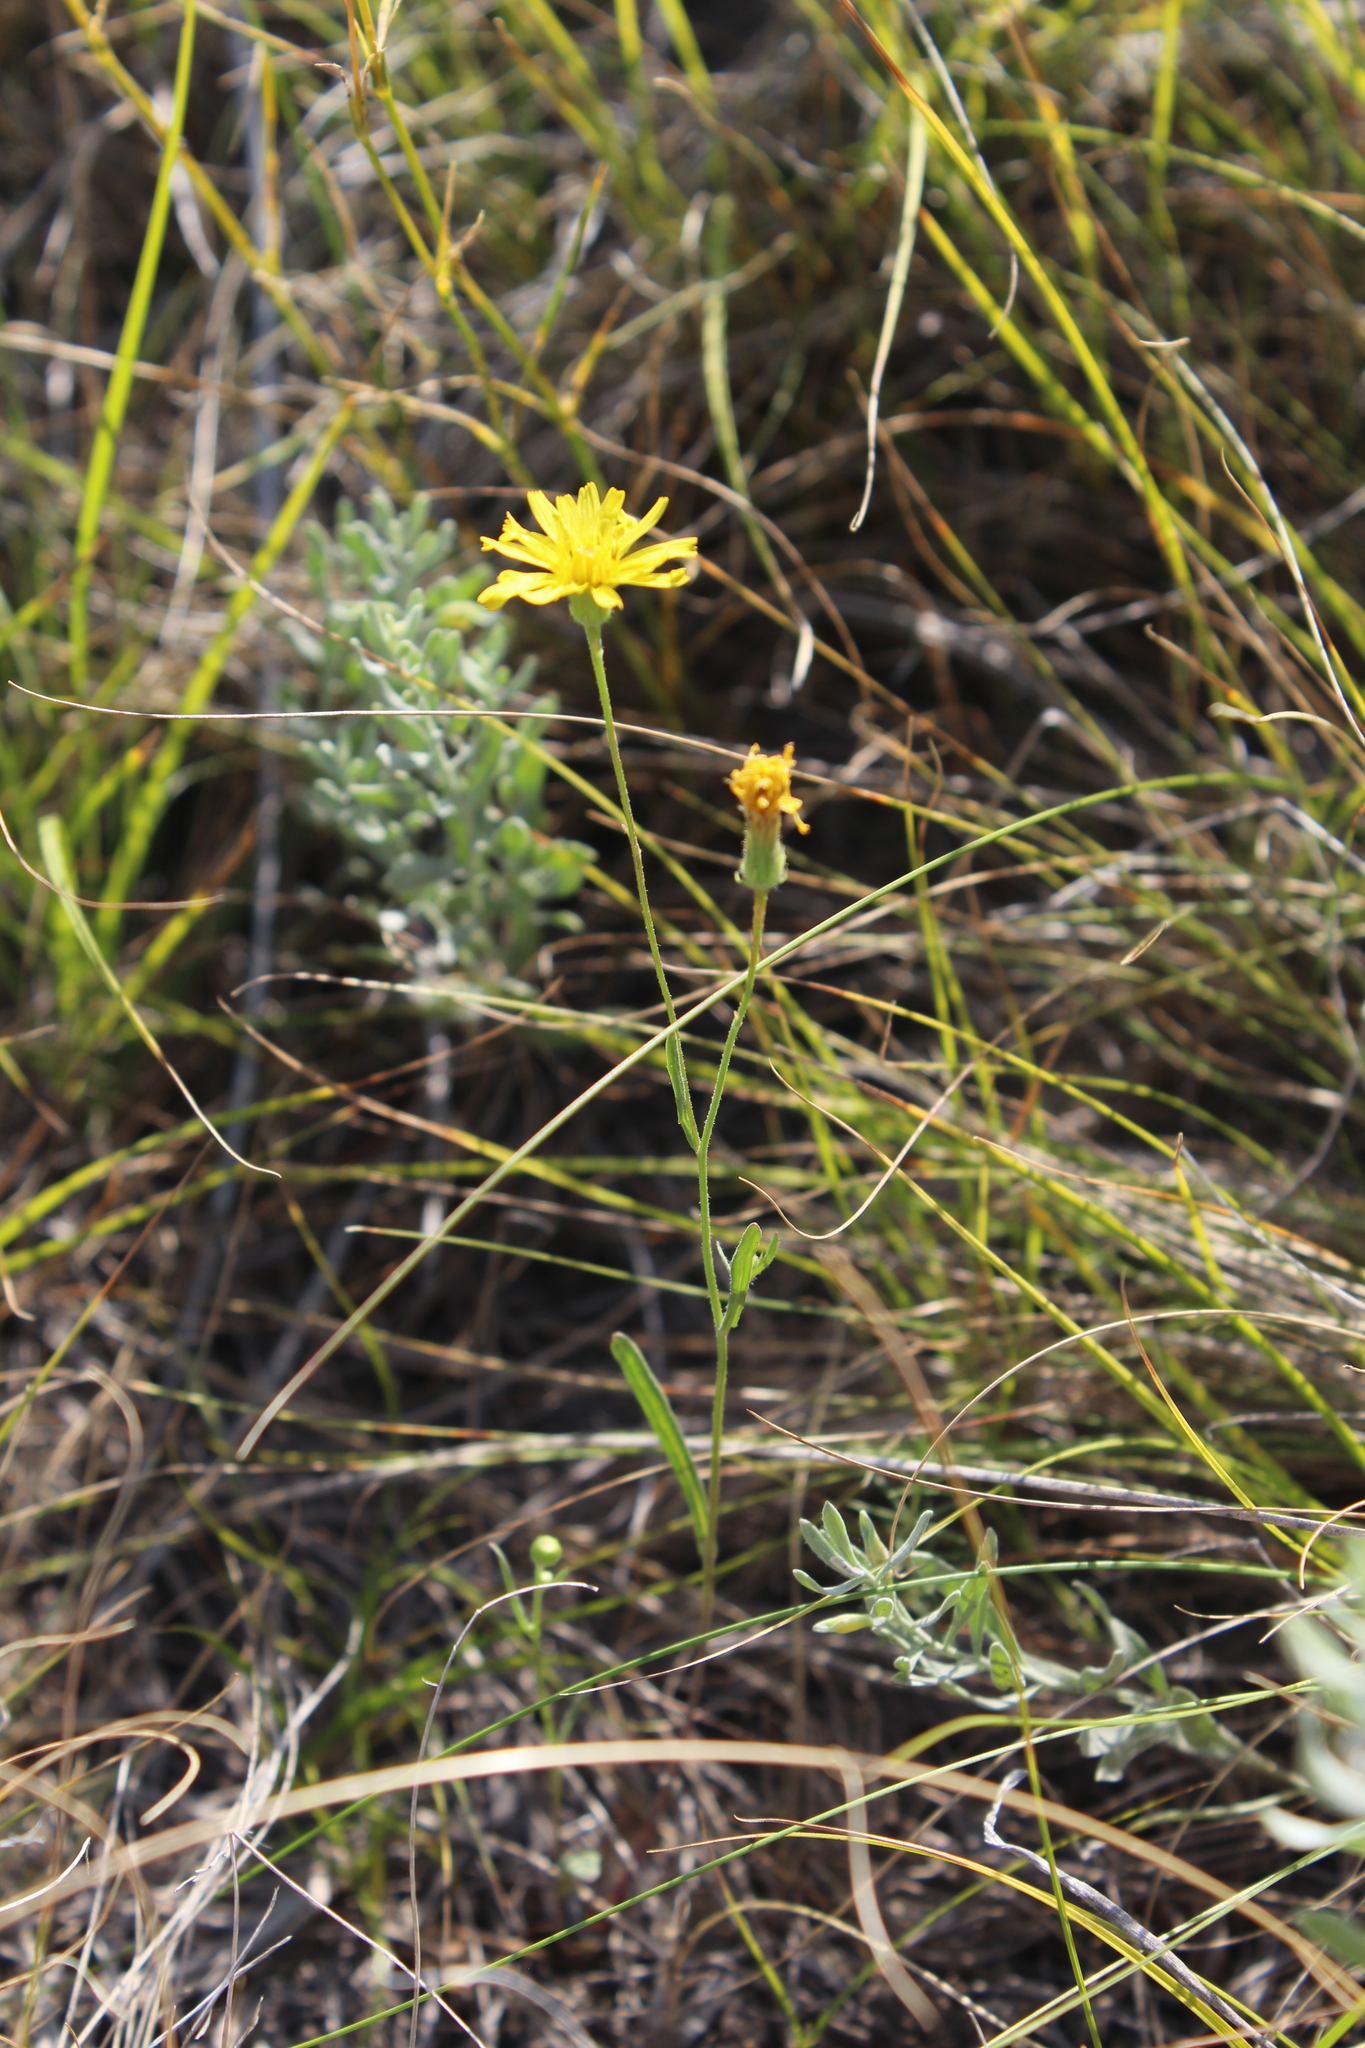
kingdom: Plantae
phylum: Tracheophyta
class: Magnoliopsida
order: Asterales
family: Asteraceae
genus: Crepis
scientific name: Crepis tectorum
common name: Narrow-leaved hawk's-beard
